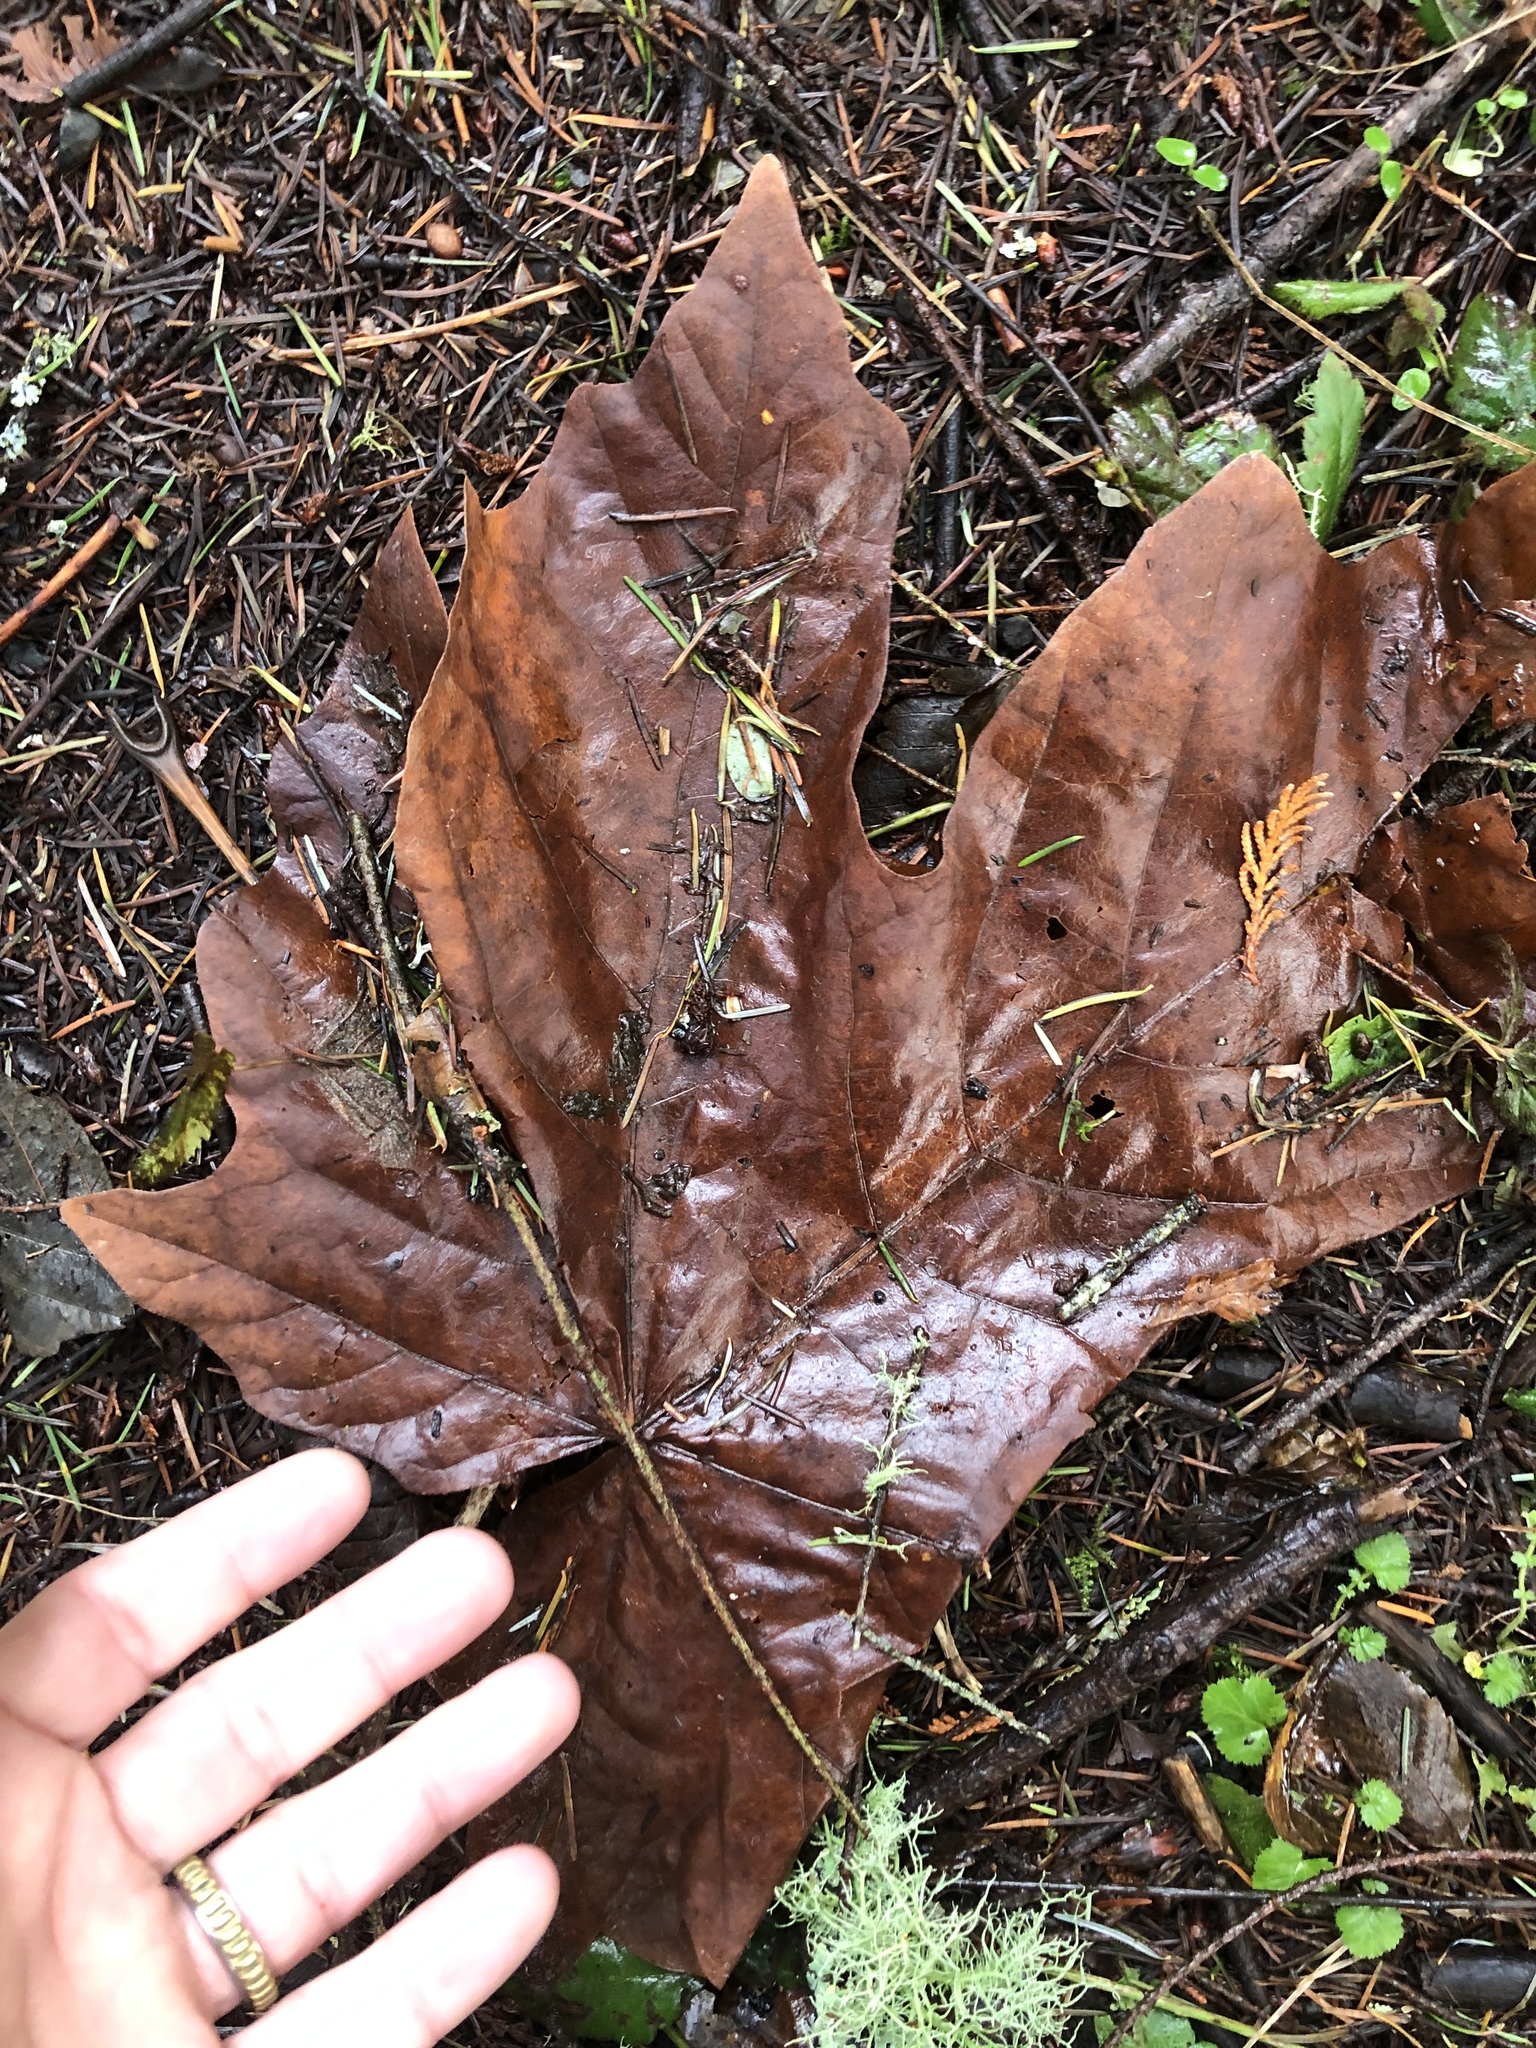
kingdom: Plantae
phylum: Tracheophyta
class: Magnoliopsida
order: Sapindales
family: Sapindaceae
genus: Acer
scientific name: Acer macrophyllum
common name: Oregon maple
